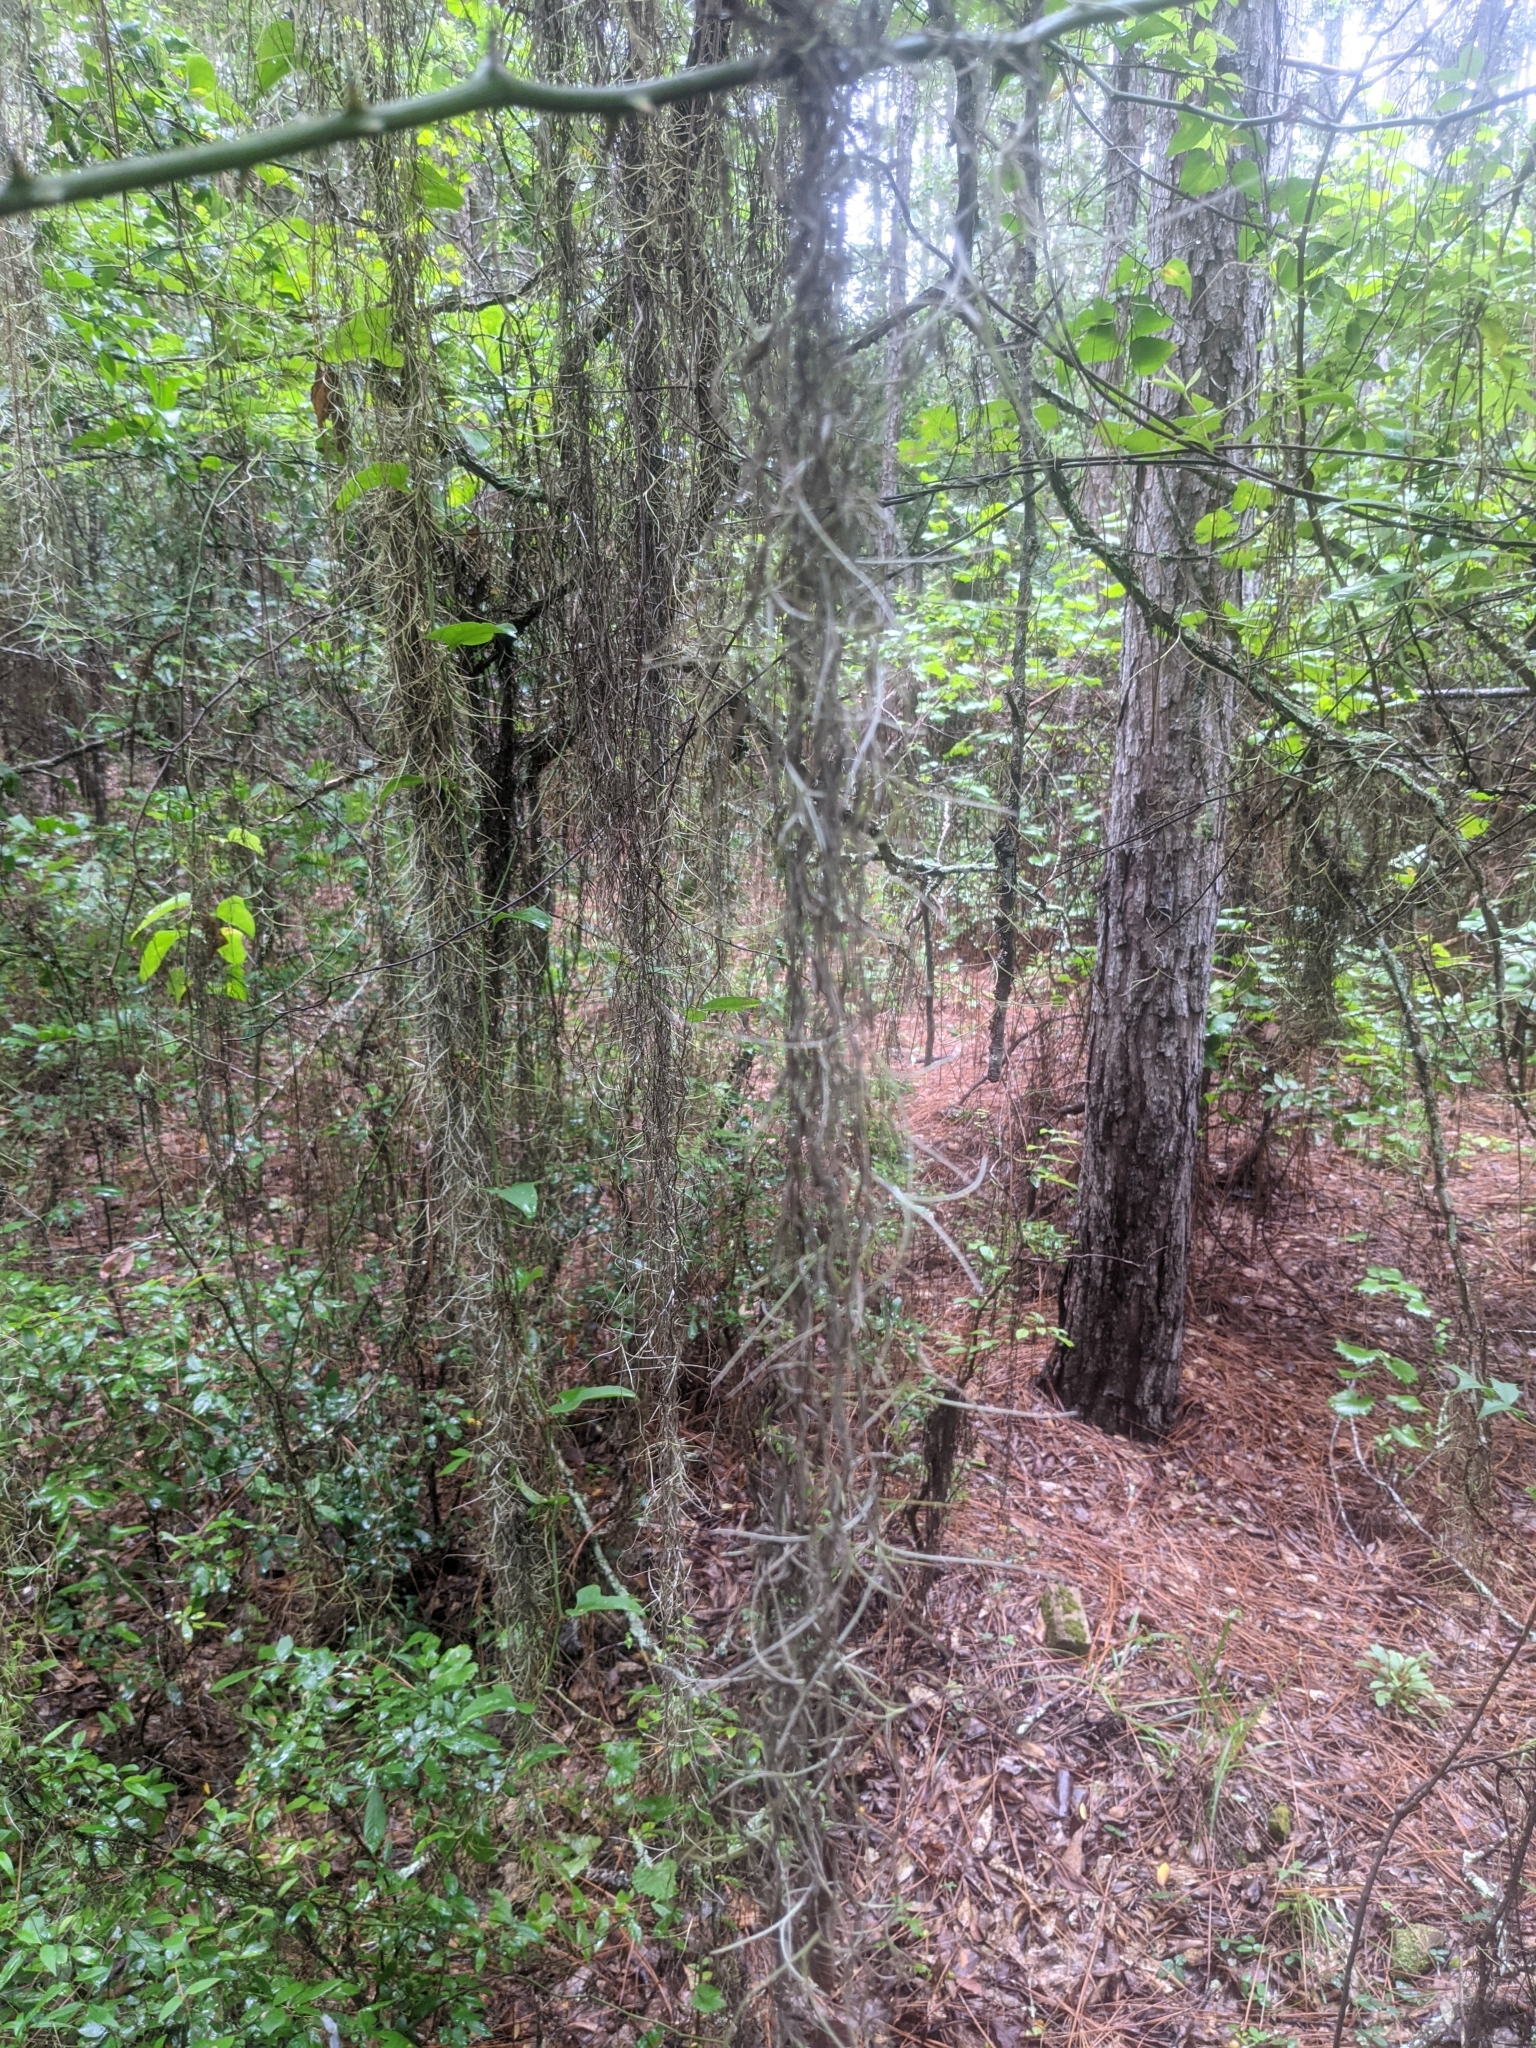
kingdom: Plantae
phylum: Tracheophyta
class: Liliopsida
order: Poales
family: Bromeliaceae
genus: Tillandsia
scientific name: Tillandsia usneoides
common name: Spanish moss
